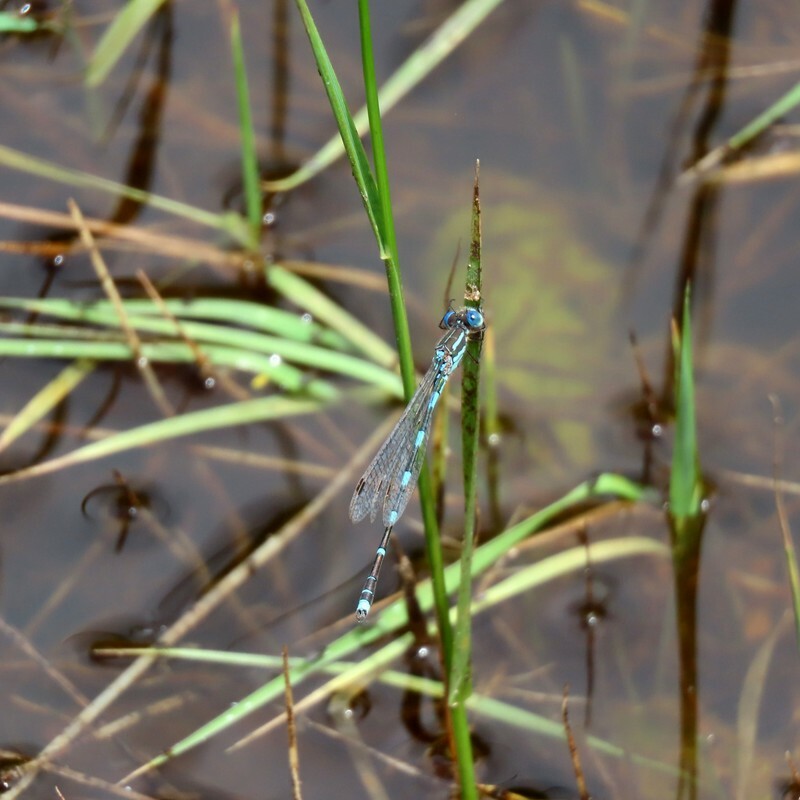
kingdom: Animalia
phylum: Arthropoda
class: Insecta
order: Odonata
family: Lestidae
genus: Austrolestes
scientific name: Austrolestes leda
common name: Wandering ringtail
